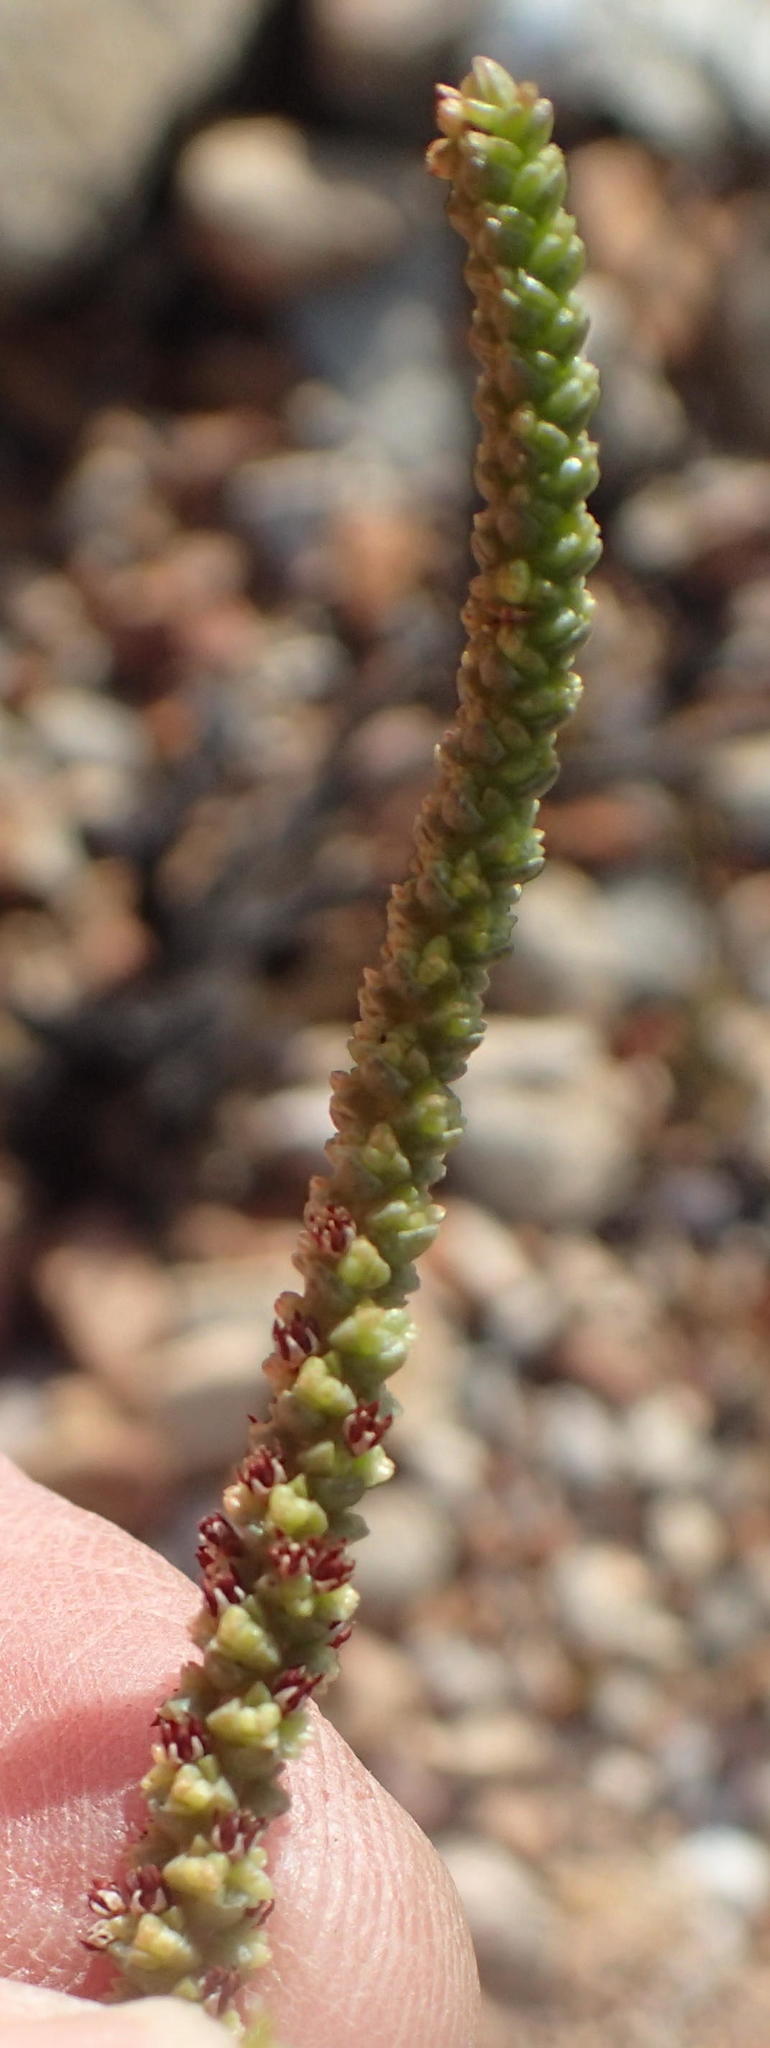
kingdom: Plantae
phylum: Tracheophyta
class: Magnoliopsida
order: Saxifragales
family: Crassulaceae
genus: Crassula
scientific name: Crassula muscosa
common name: Toy-cypress
